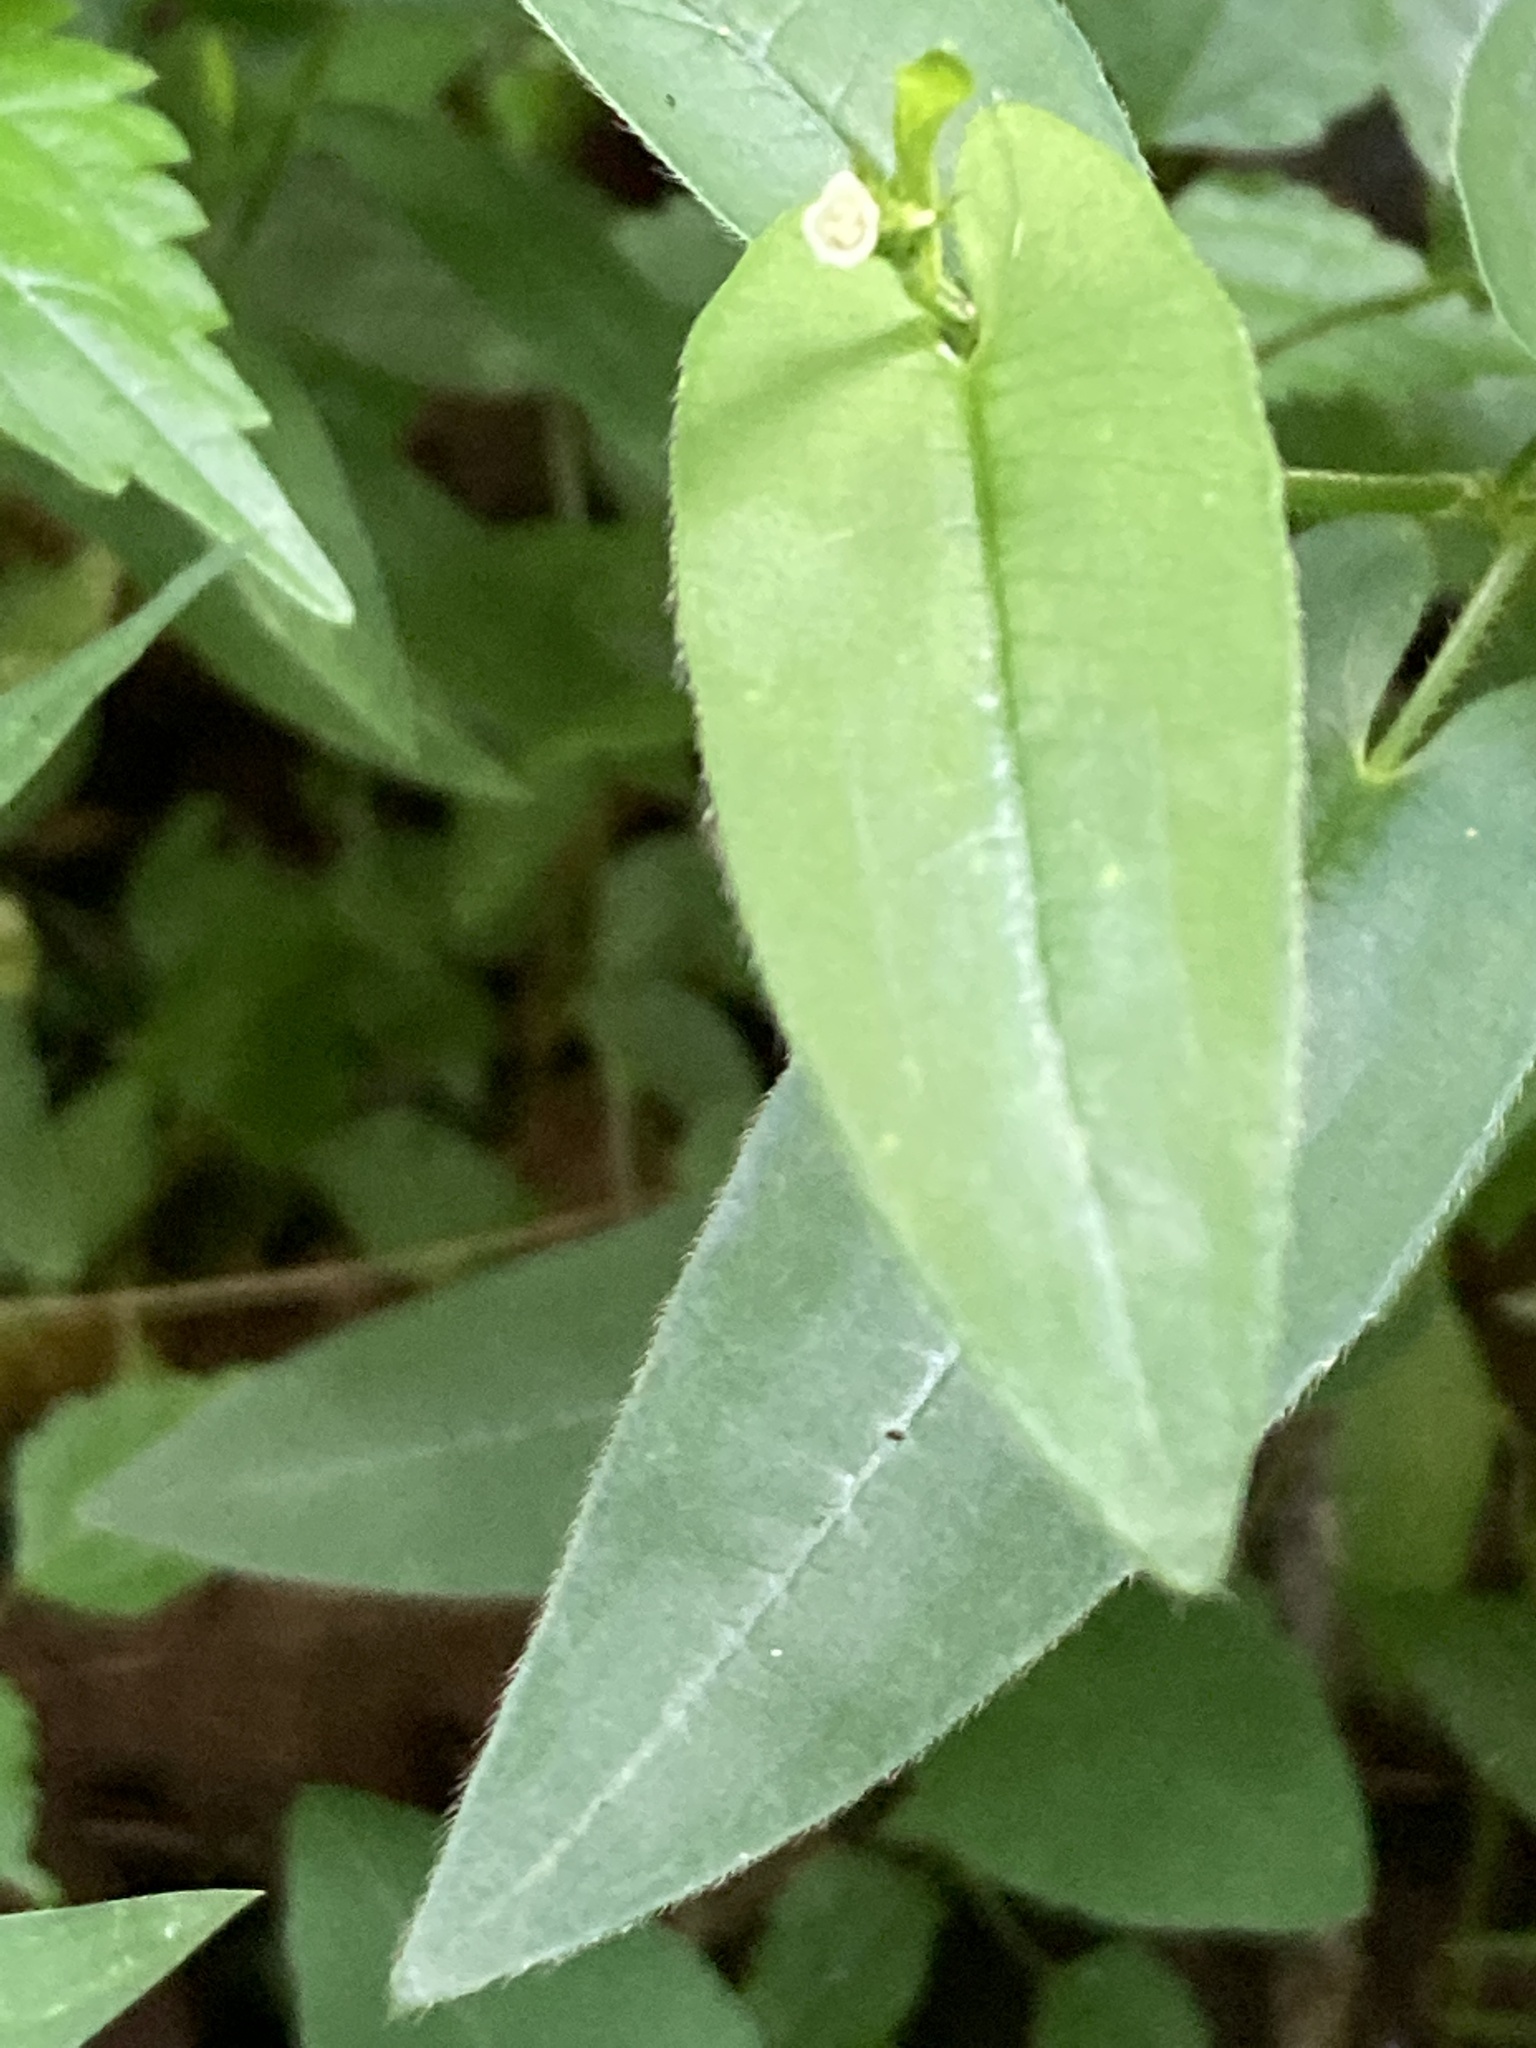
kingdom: Plantae
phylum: Tracheophyta
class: Magnoliopsida
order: Caryophyllales
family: Polygonaceae
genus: Persicaria
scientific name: Persicaria sagittata
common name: American tearthumb
